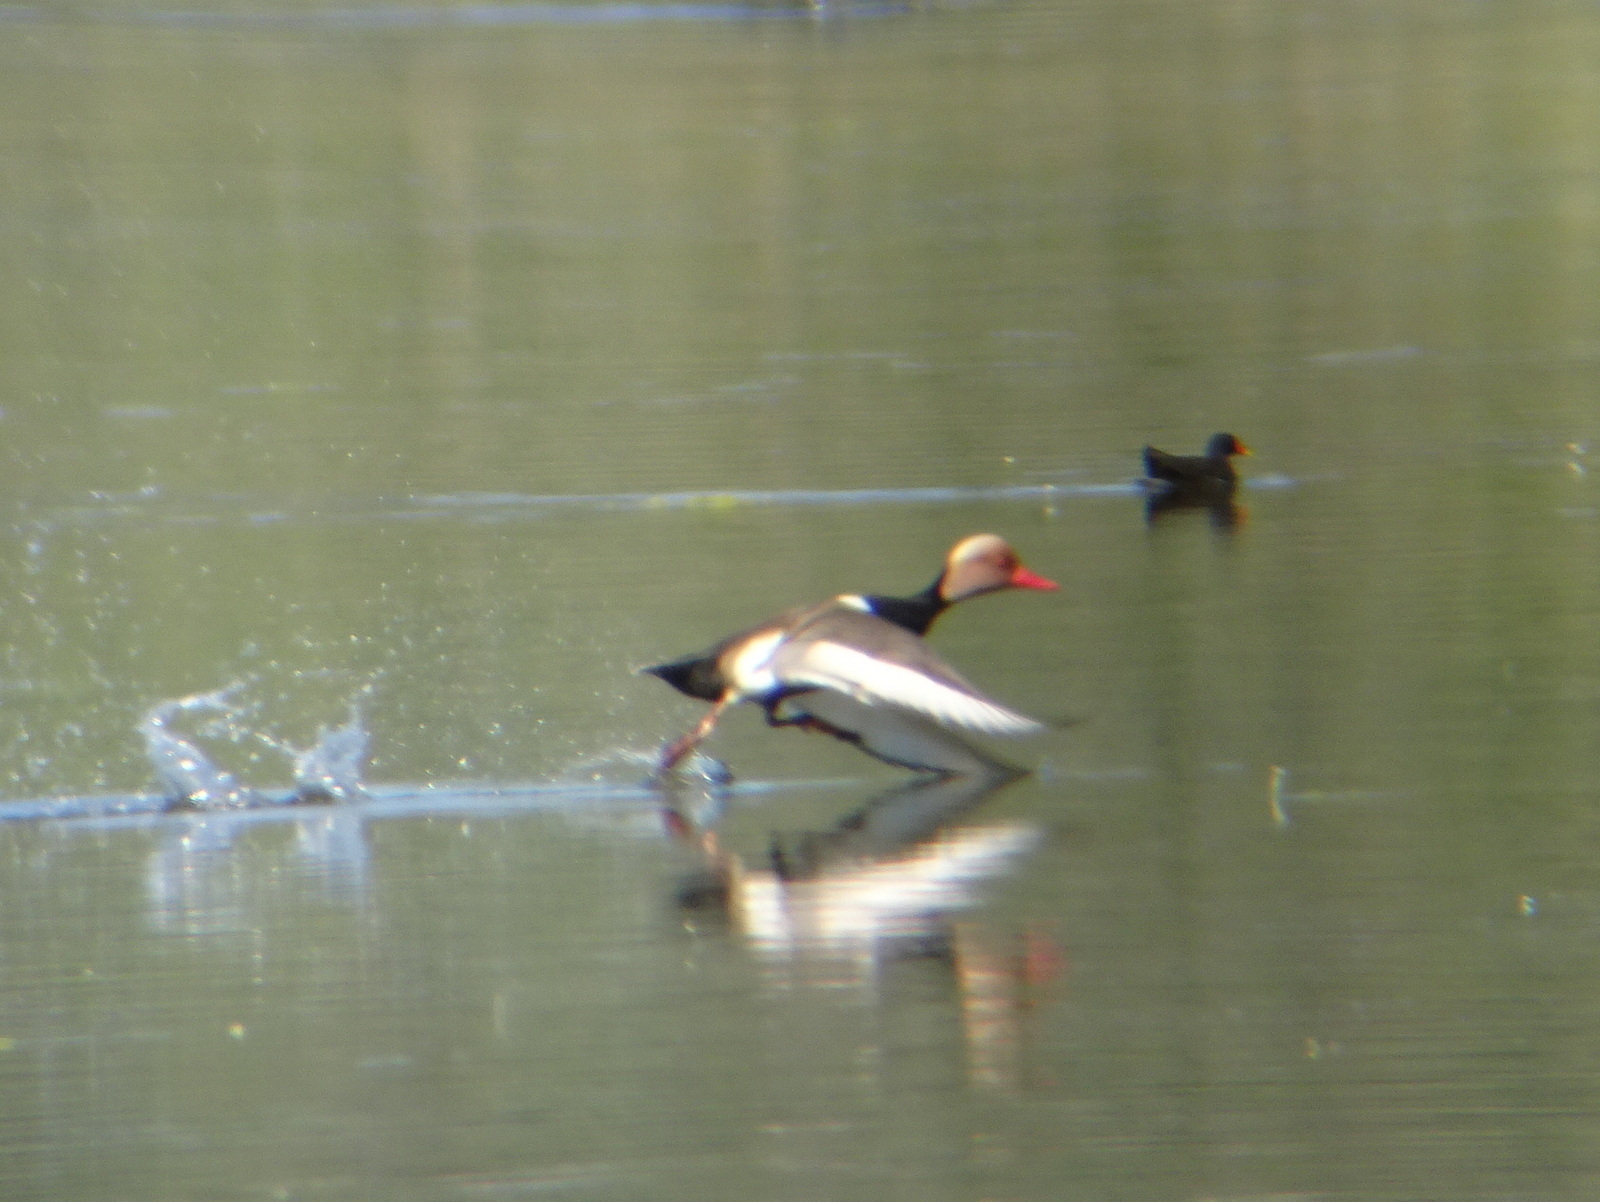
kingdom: Animalia
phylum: Chordata
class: Aves
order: Anseriformes
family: Anatidae
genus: Netta
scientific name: Netta rufina
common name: Red-crested pochard
